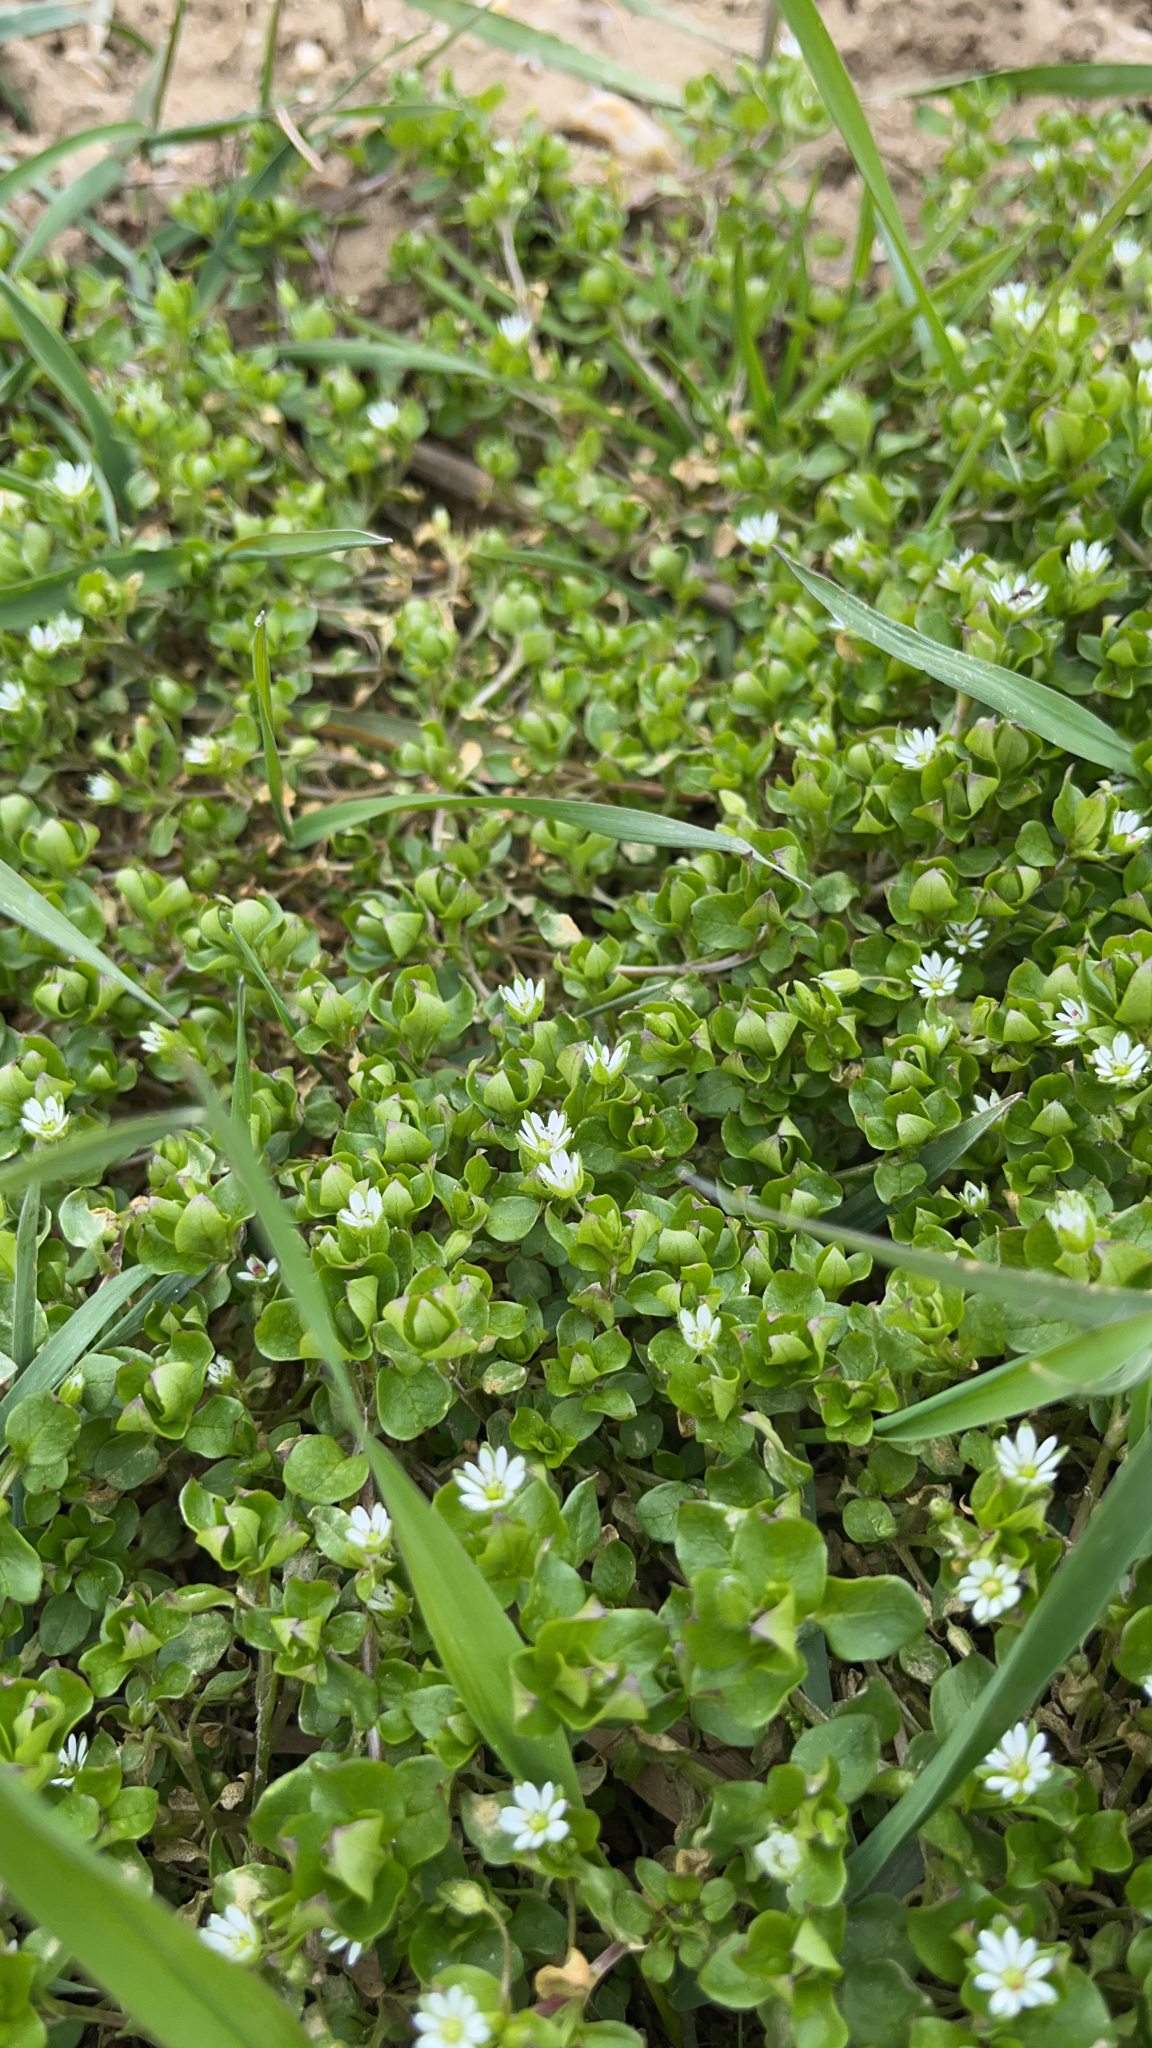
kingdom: Plantae
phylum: Tracheophyta
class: Magnoliopsida
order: Caryophyllales
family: Caryophyllaceae
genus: Stellaria
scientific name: Stellaria media
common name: Common chickweed
